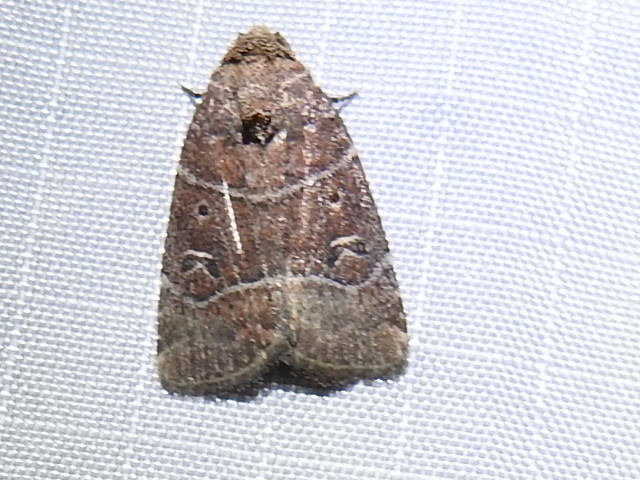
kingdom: Animalia
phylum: Arthropoda
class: Insecta
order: Lepidoptera
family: Noctuidae
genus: Elaphria
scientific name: Elaphria grata
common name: Grateful midget moth
